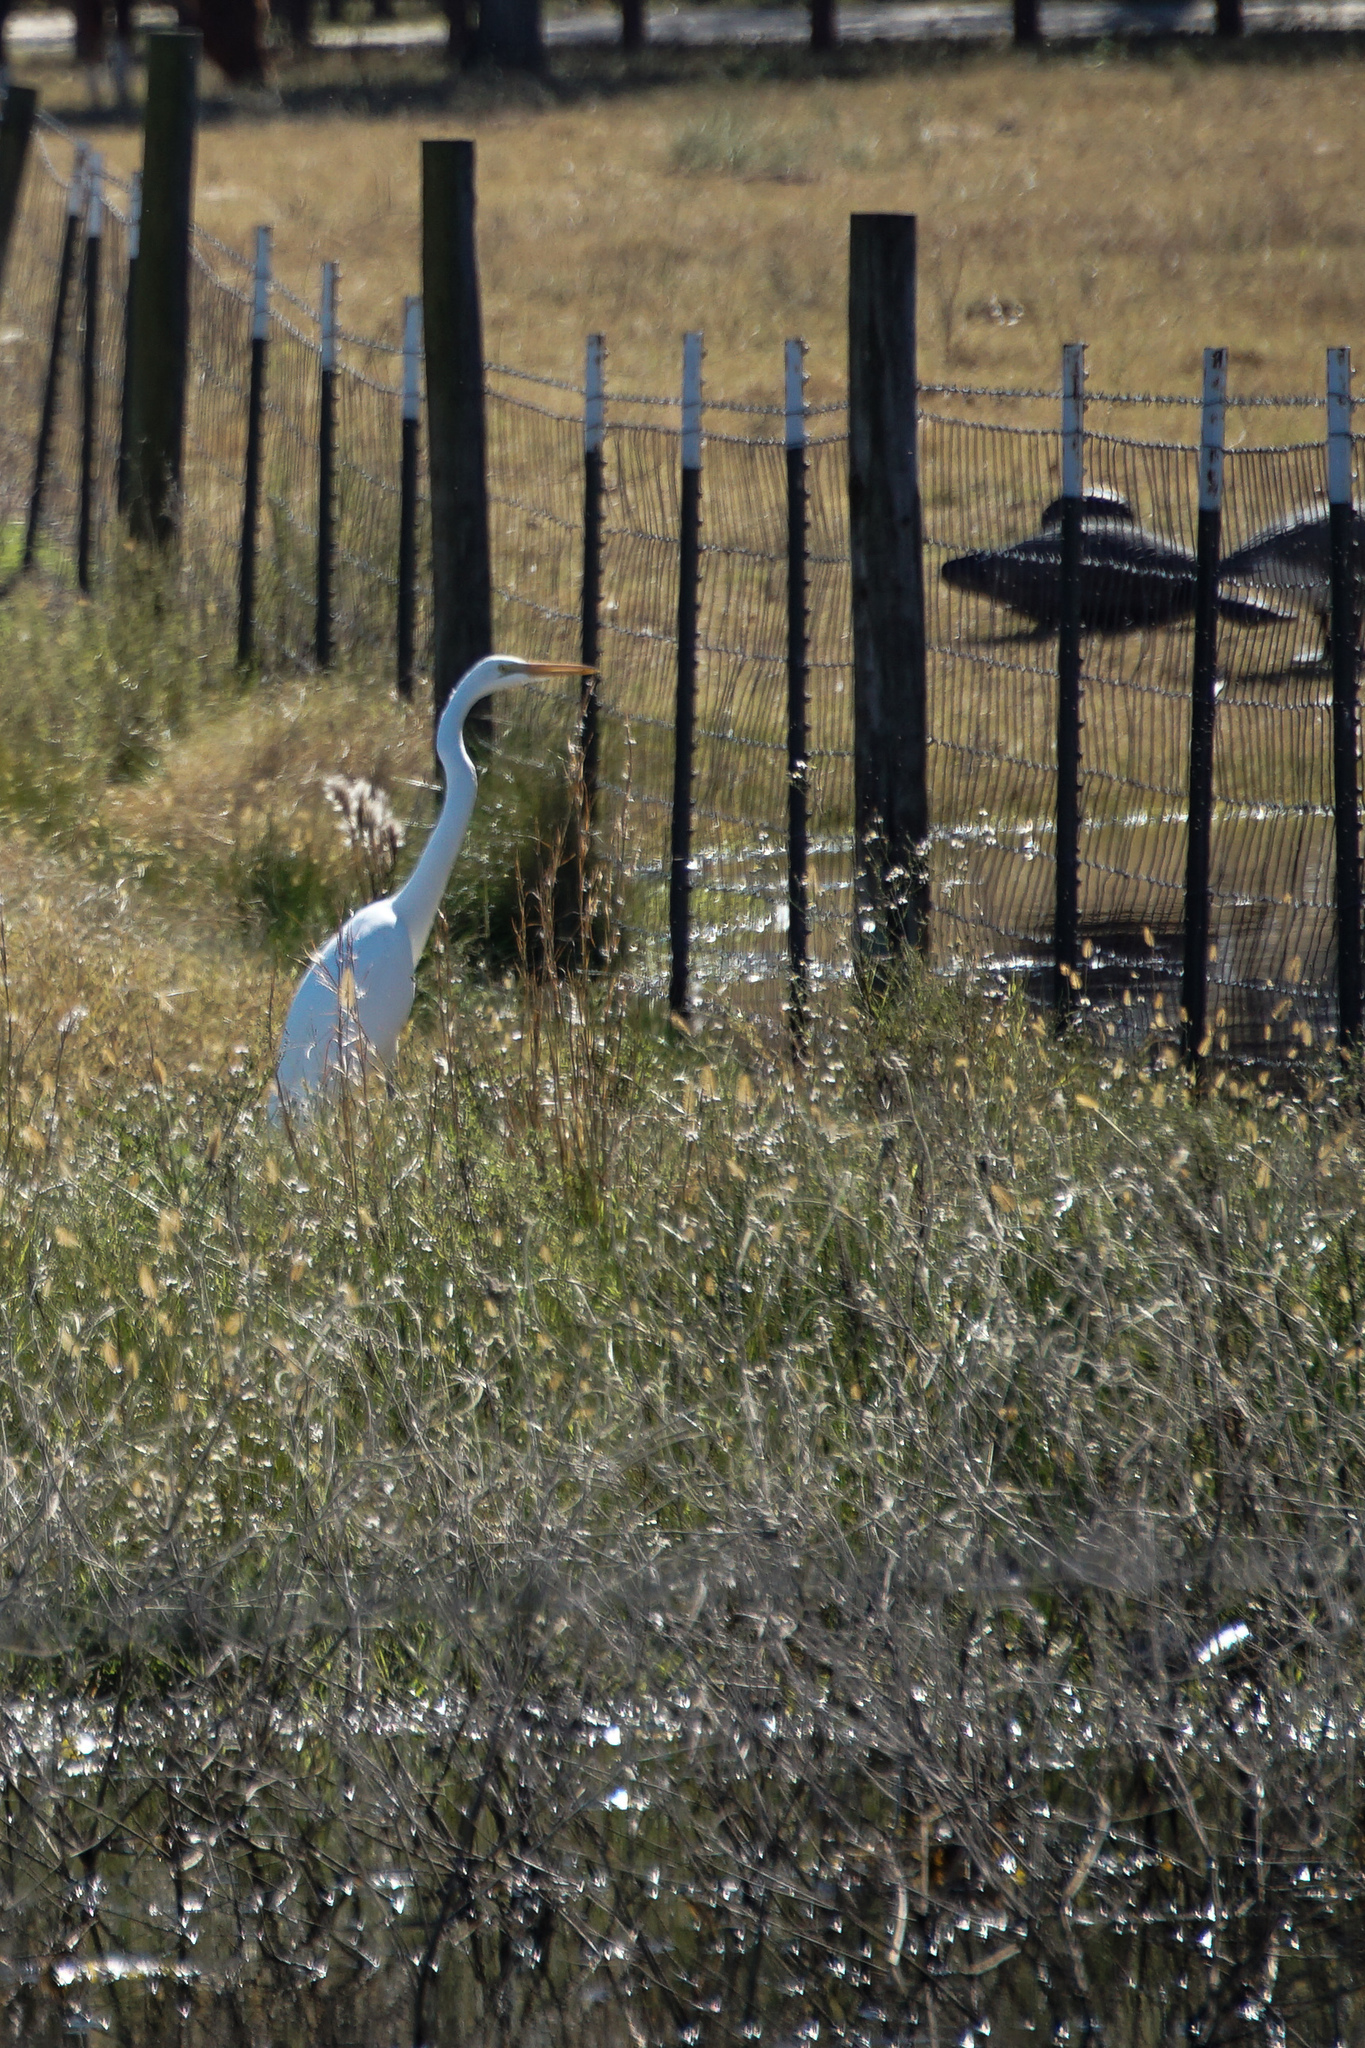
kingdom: Animalia
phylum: Chordata
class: Aves
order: Pelecaniformes
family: Ardeidae
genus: Ardea
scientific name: Ardea alba
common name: Great egret
